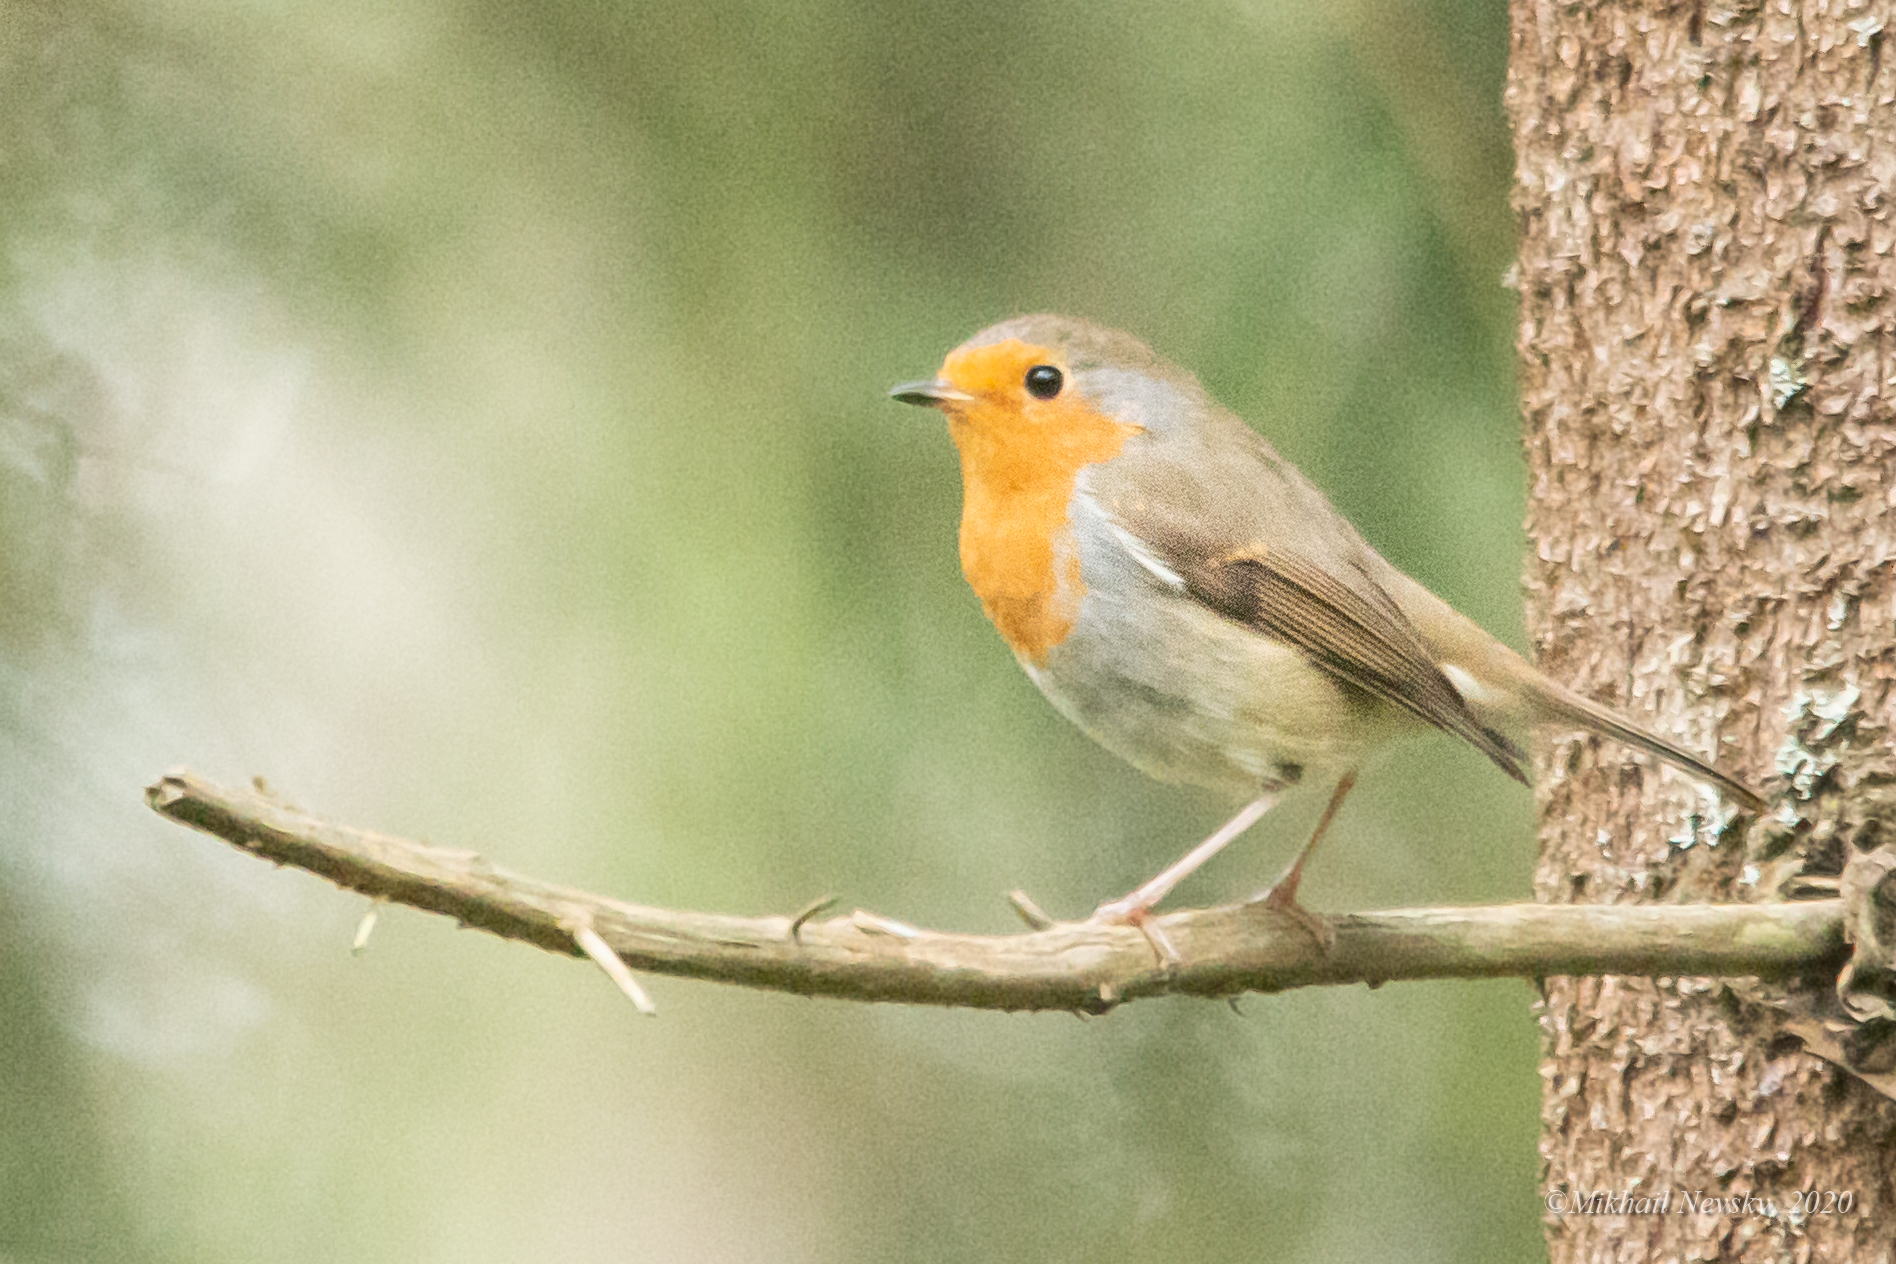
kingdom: Animalia
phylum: Chordata
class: Aves
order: Passeriformes
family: Muscicapidae
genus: Erithacus
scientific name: Erithacus rubecula
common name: European robin
